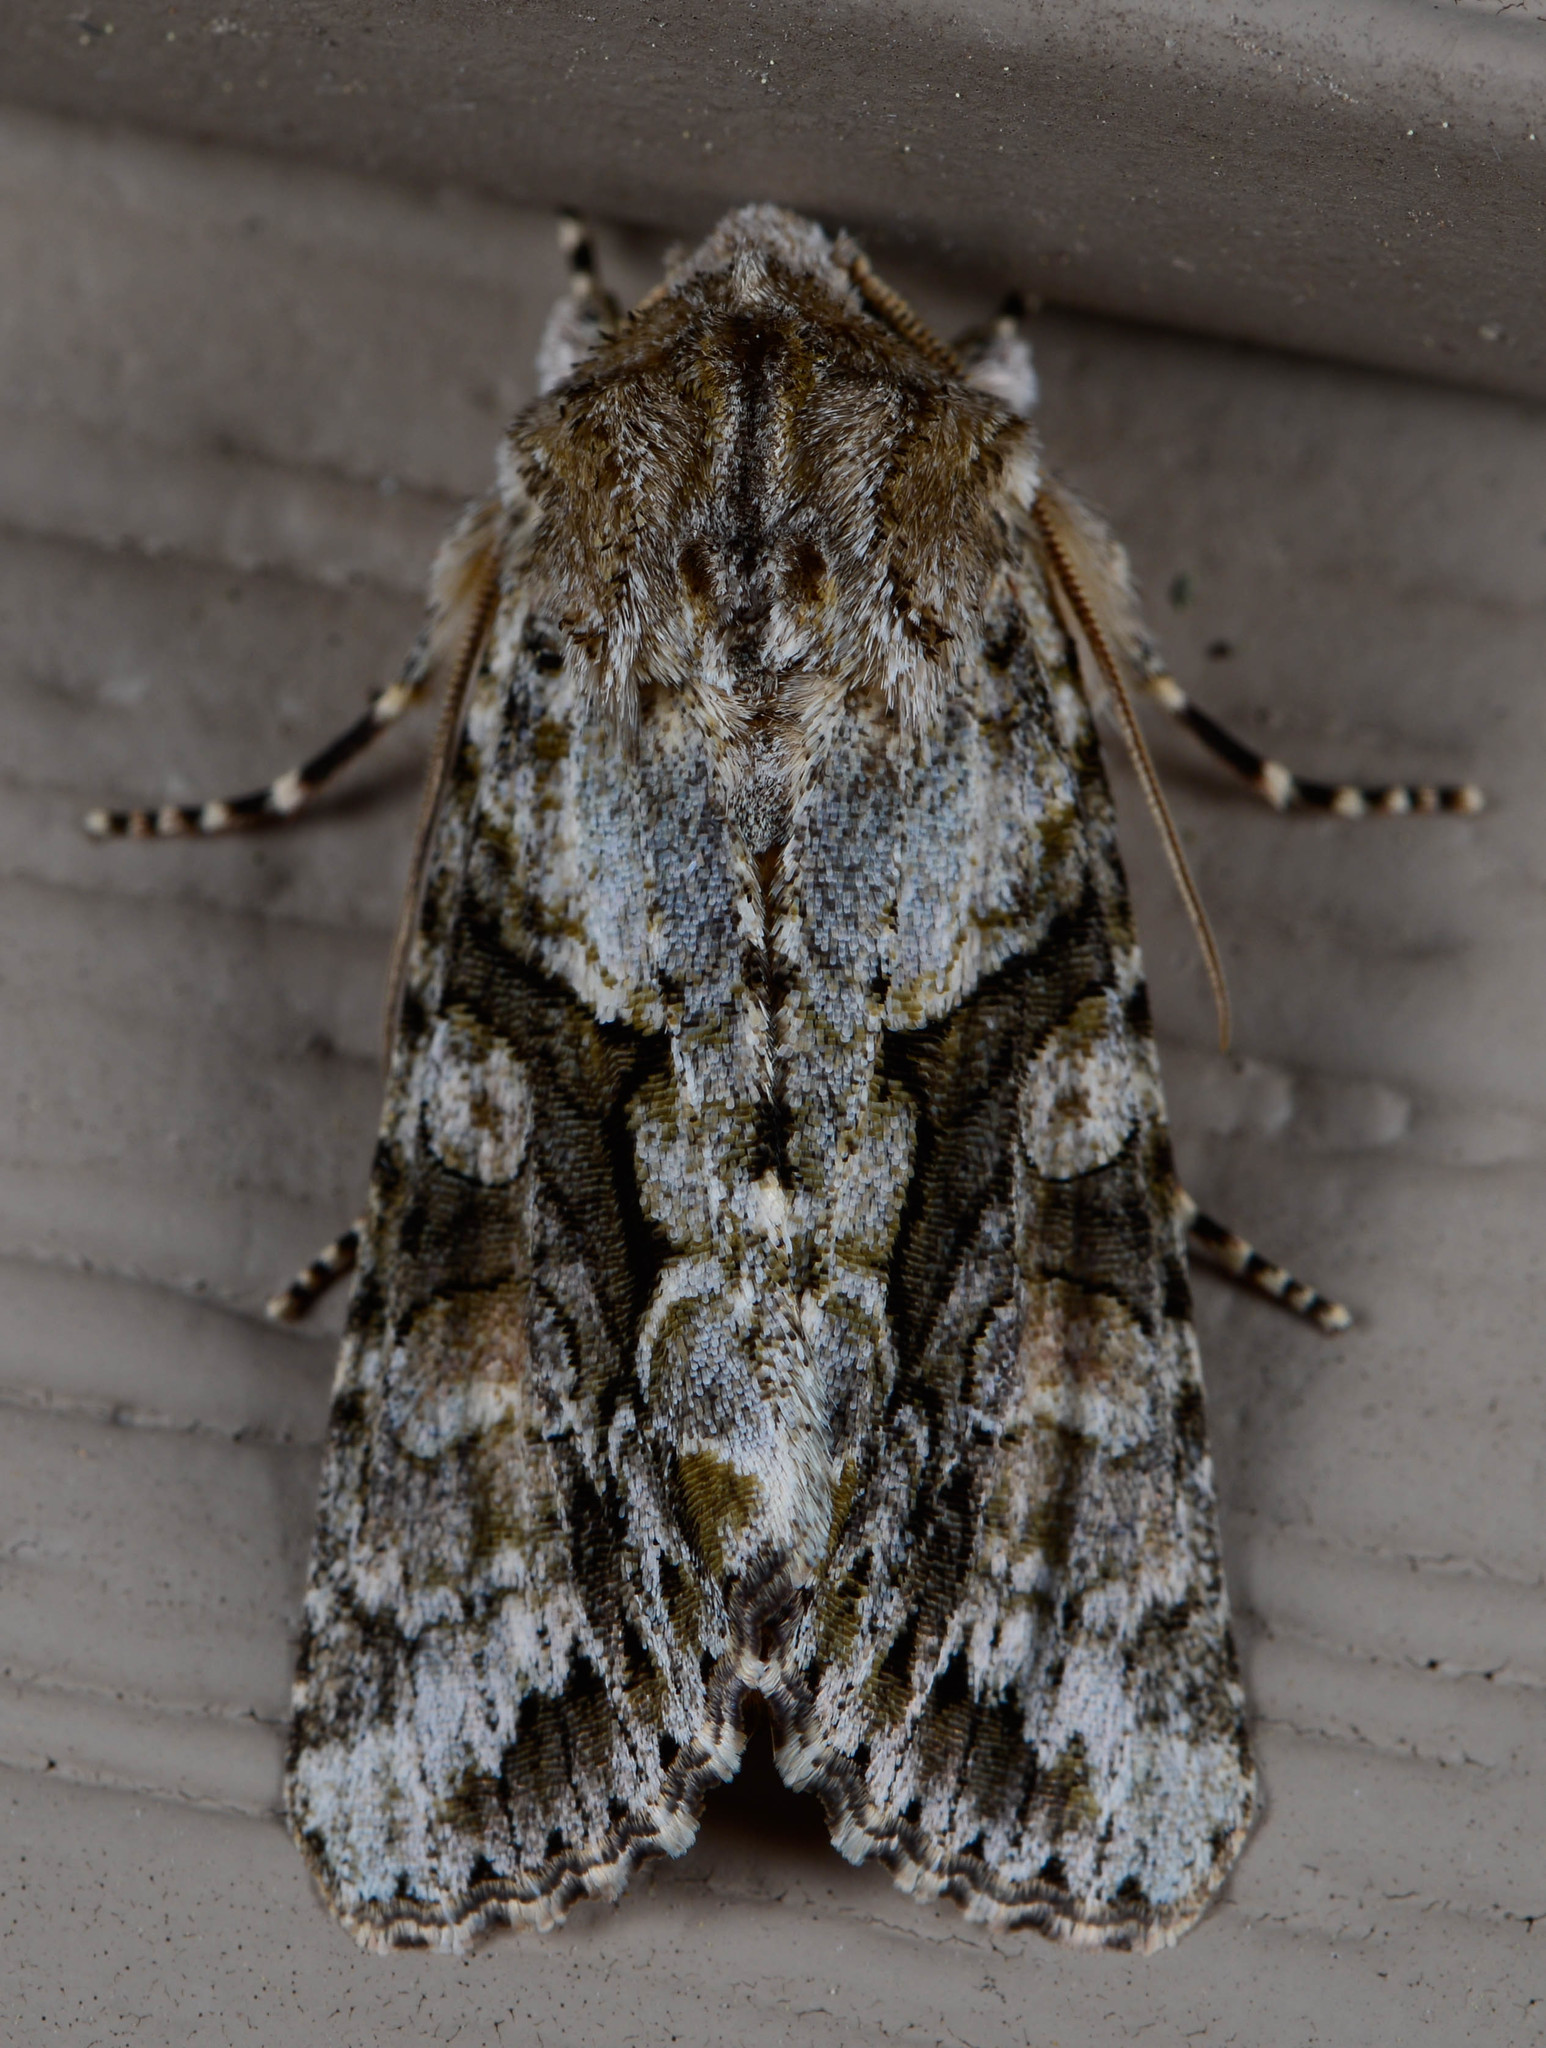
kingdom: Animalia
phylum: Arthropoda
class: Insecta
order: Lepidoptera
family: Noctuidae
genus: Achatia
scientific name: Achatia distincta
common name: Distinct quaker
